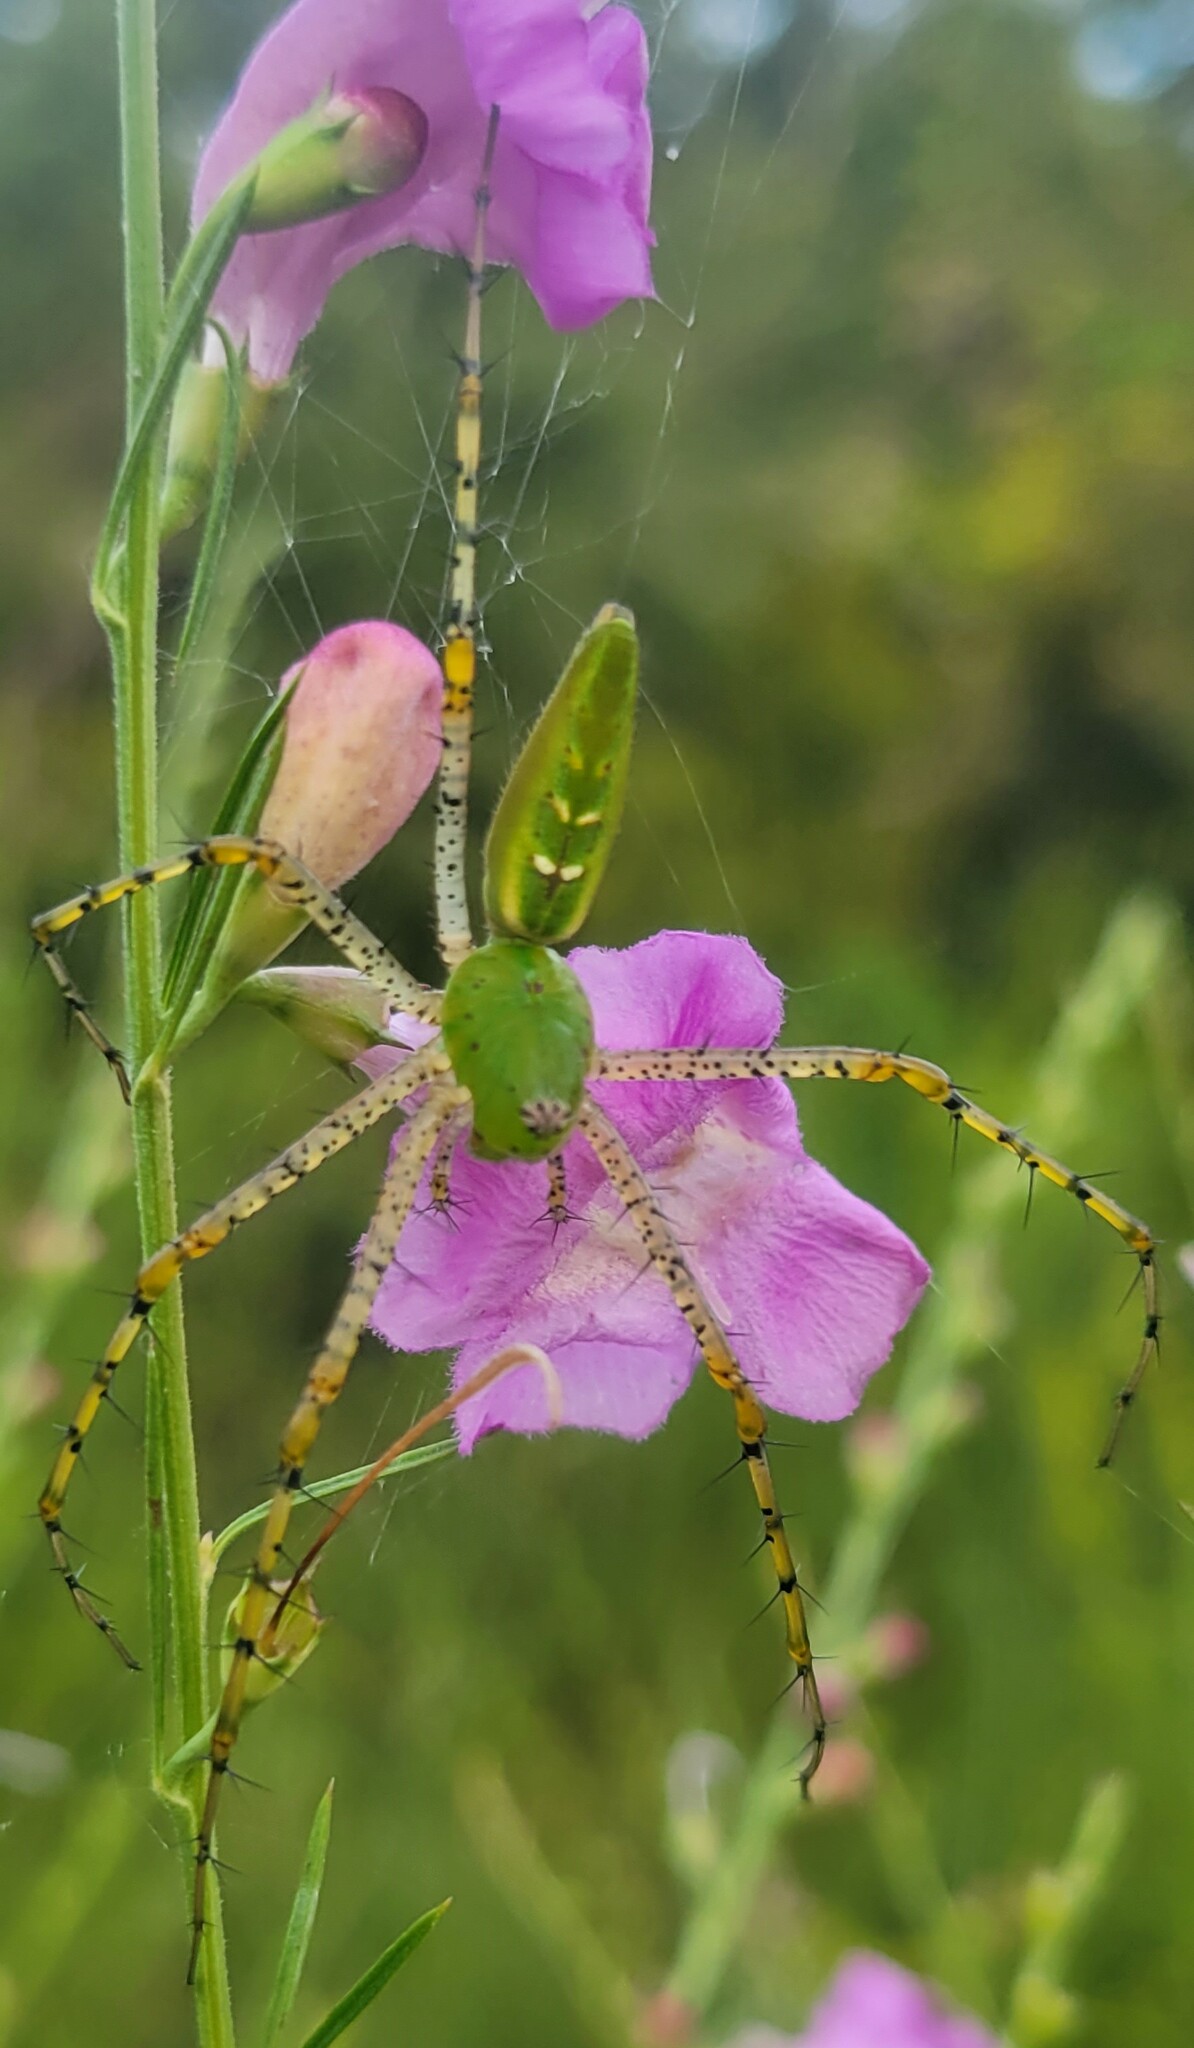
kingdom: Animalia
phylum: Arthropoda
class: Arachnida
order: Araneae
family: Oxyopidae
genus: Peucetia
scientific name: Peucetia viridans
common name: Lynx spiders
